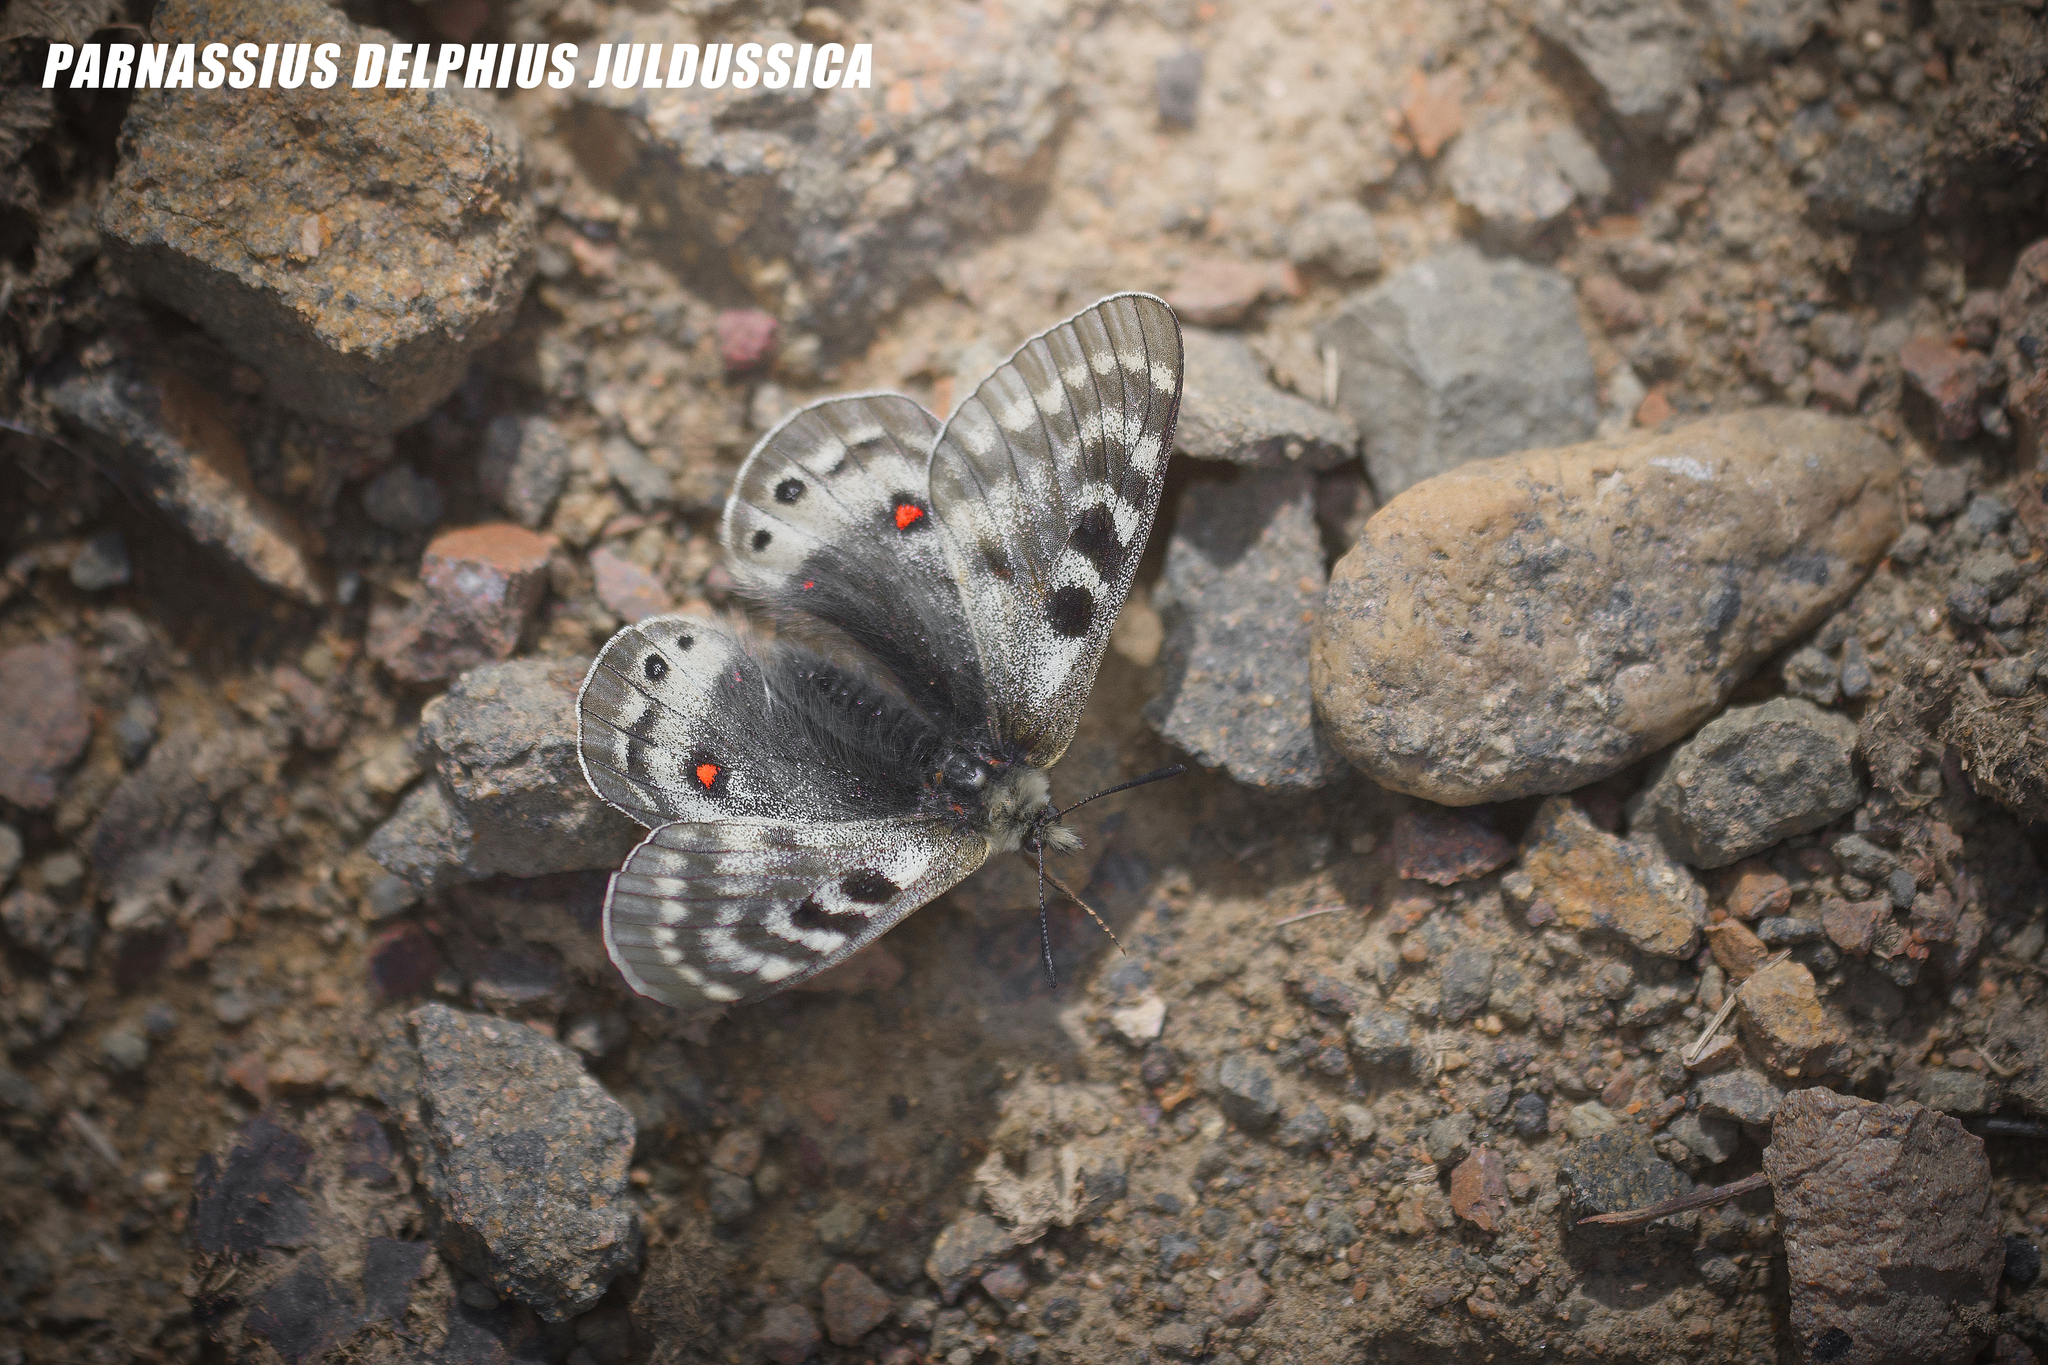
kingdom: Animalia
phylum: Arthropoda
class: Insecta
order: Lepidoptera
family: Papilionidae
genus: Parnassius
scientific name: Parnassius delphius
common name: Banded apollo
